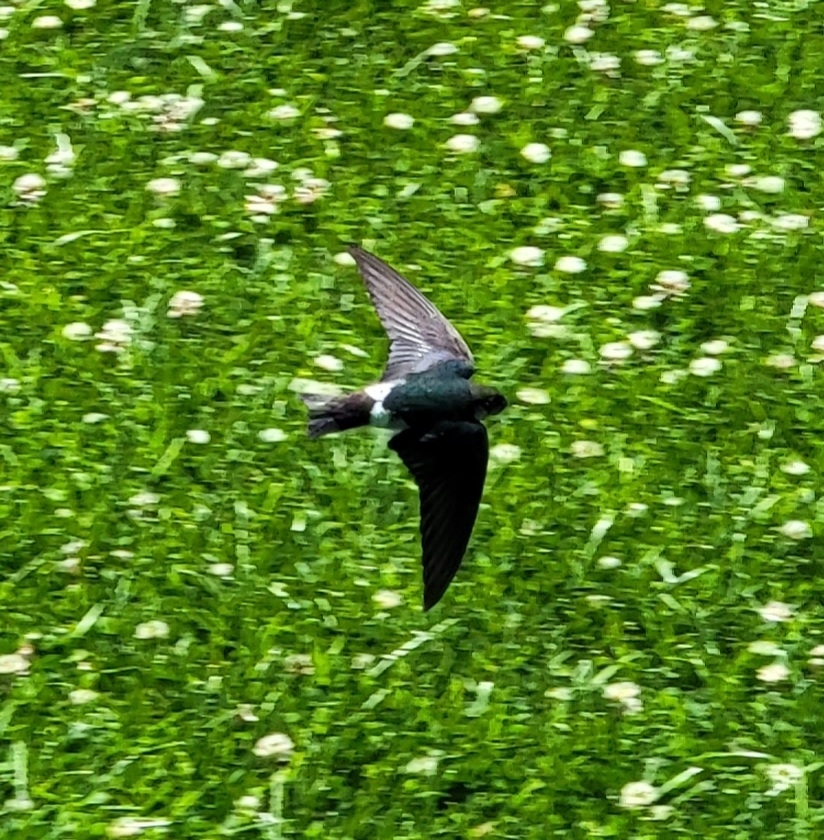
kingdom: Animalia
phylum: Chordata
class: Aves
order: Passeriformes
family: Hirundinidae
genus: Tachycineta
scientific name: Tachycineta thalassina
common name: Violet-green swallow
